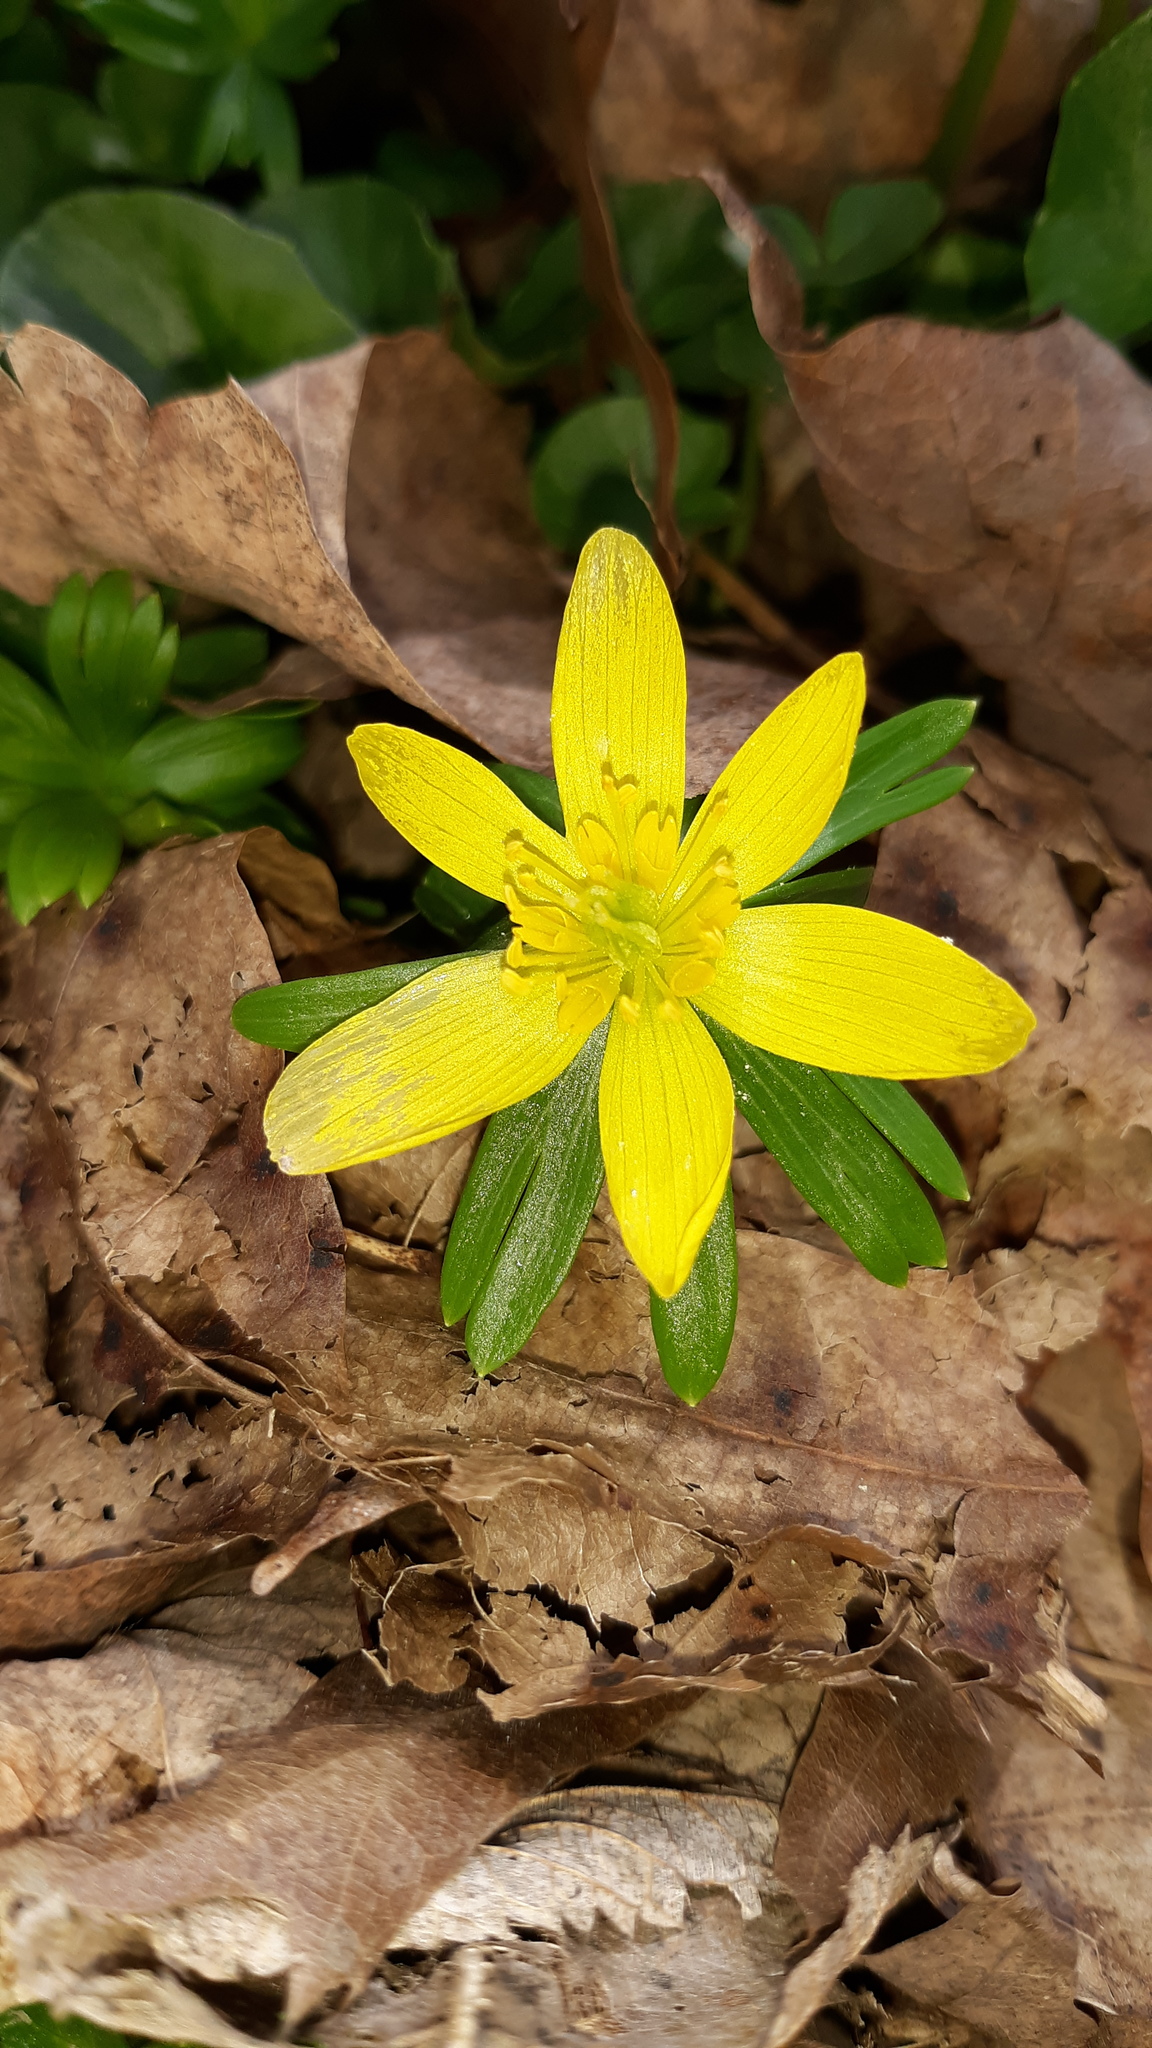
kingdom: Plantae
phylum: Tracheophyta
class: Magnoliopsida
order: Ranunculales
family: Ranunculaceae
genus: Eranthis
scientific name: Eranthis hyemalis
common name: Winter aconite
